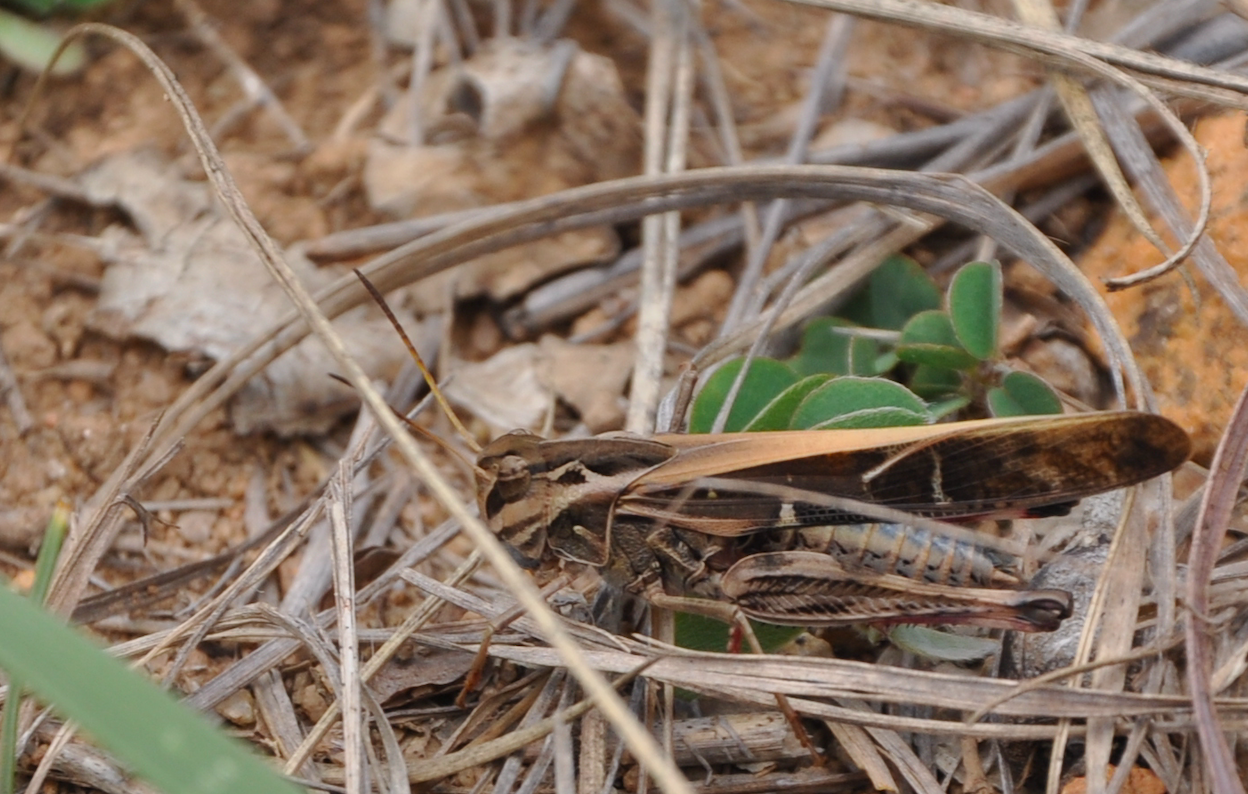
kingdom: Animalia
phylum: Arthropoda
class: Insecta
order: Orthoptera
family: Acrididae
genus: Oedaleus
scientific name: Oedaleus virgula
